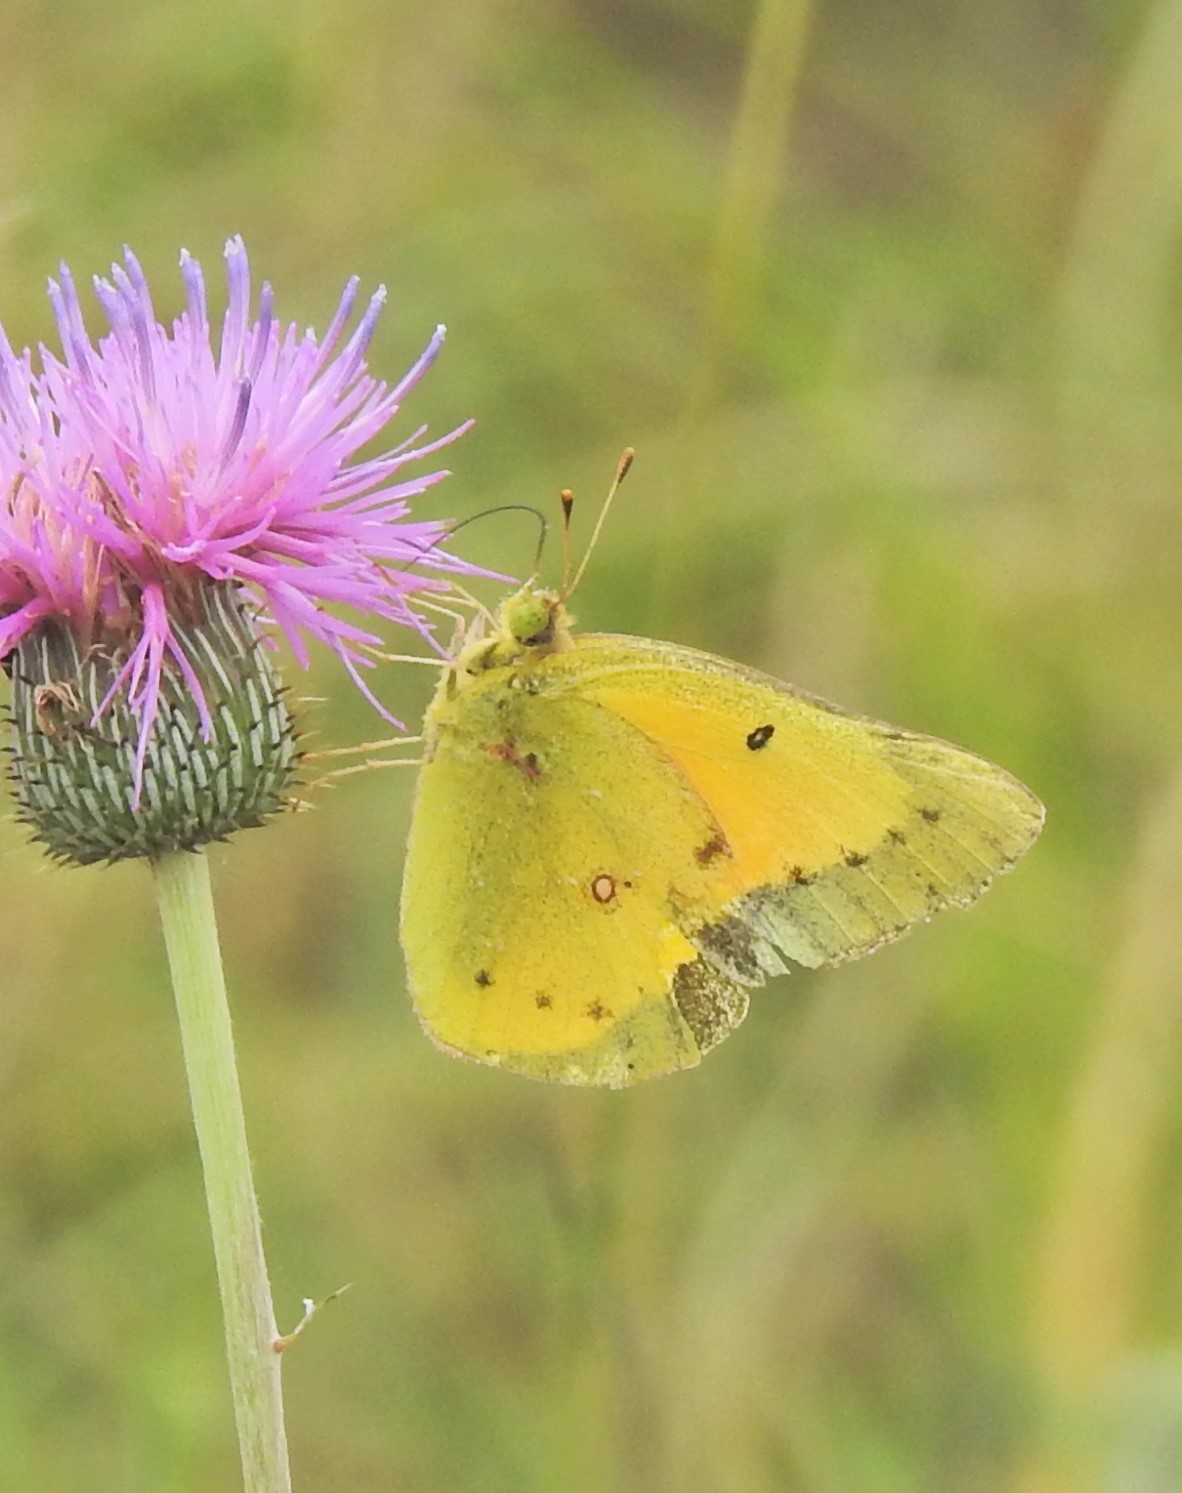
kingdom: Animalia
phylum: Arthropoda
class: Insecta
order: Lepidoptera
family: Pieridae
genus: Colias
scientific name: Colias eurytheme
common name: Alfalfa butterfly
